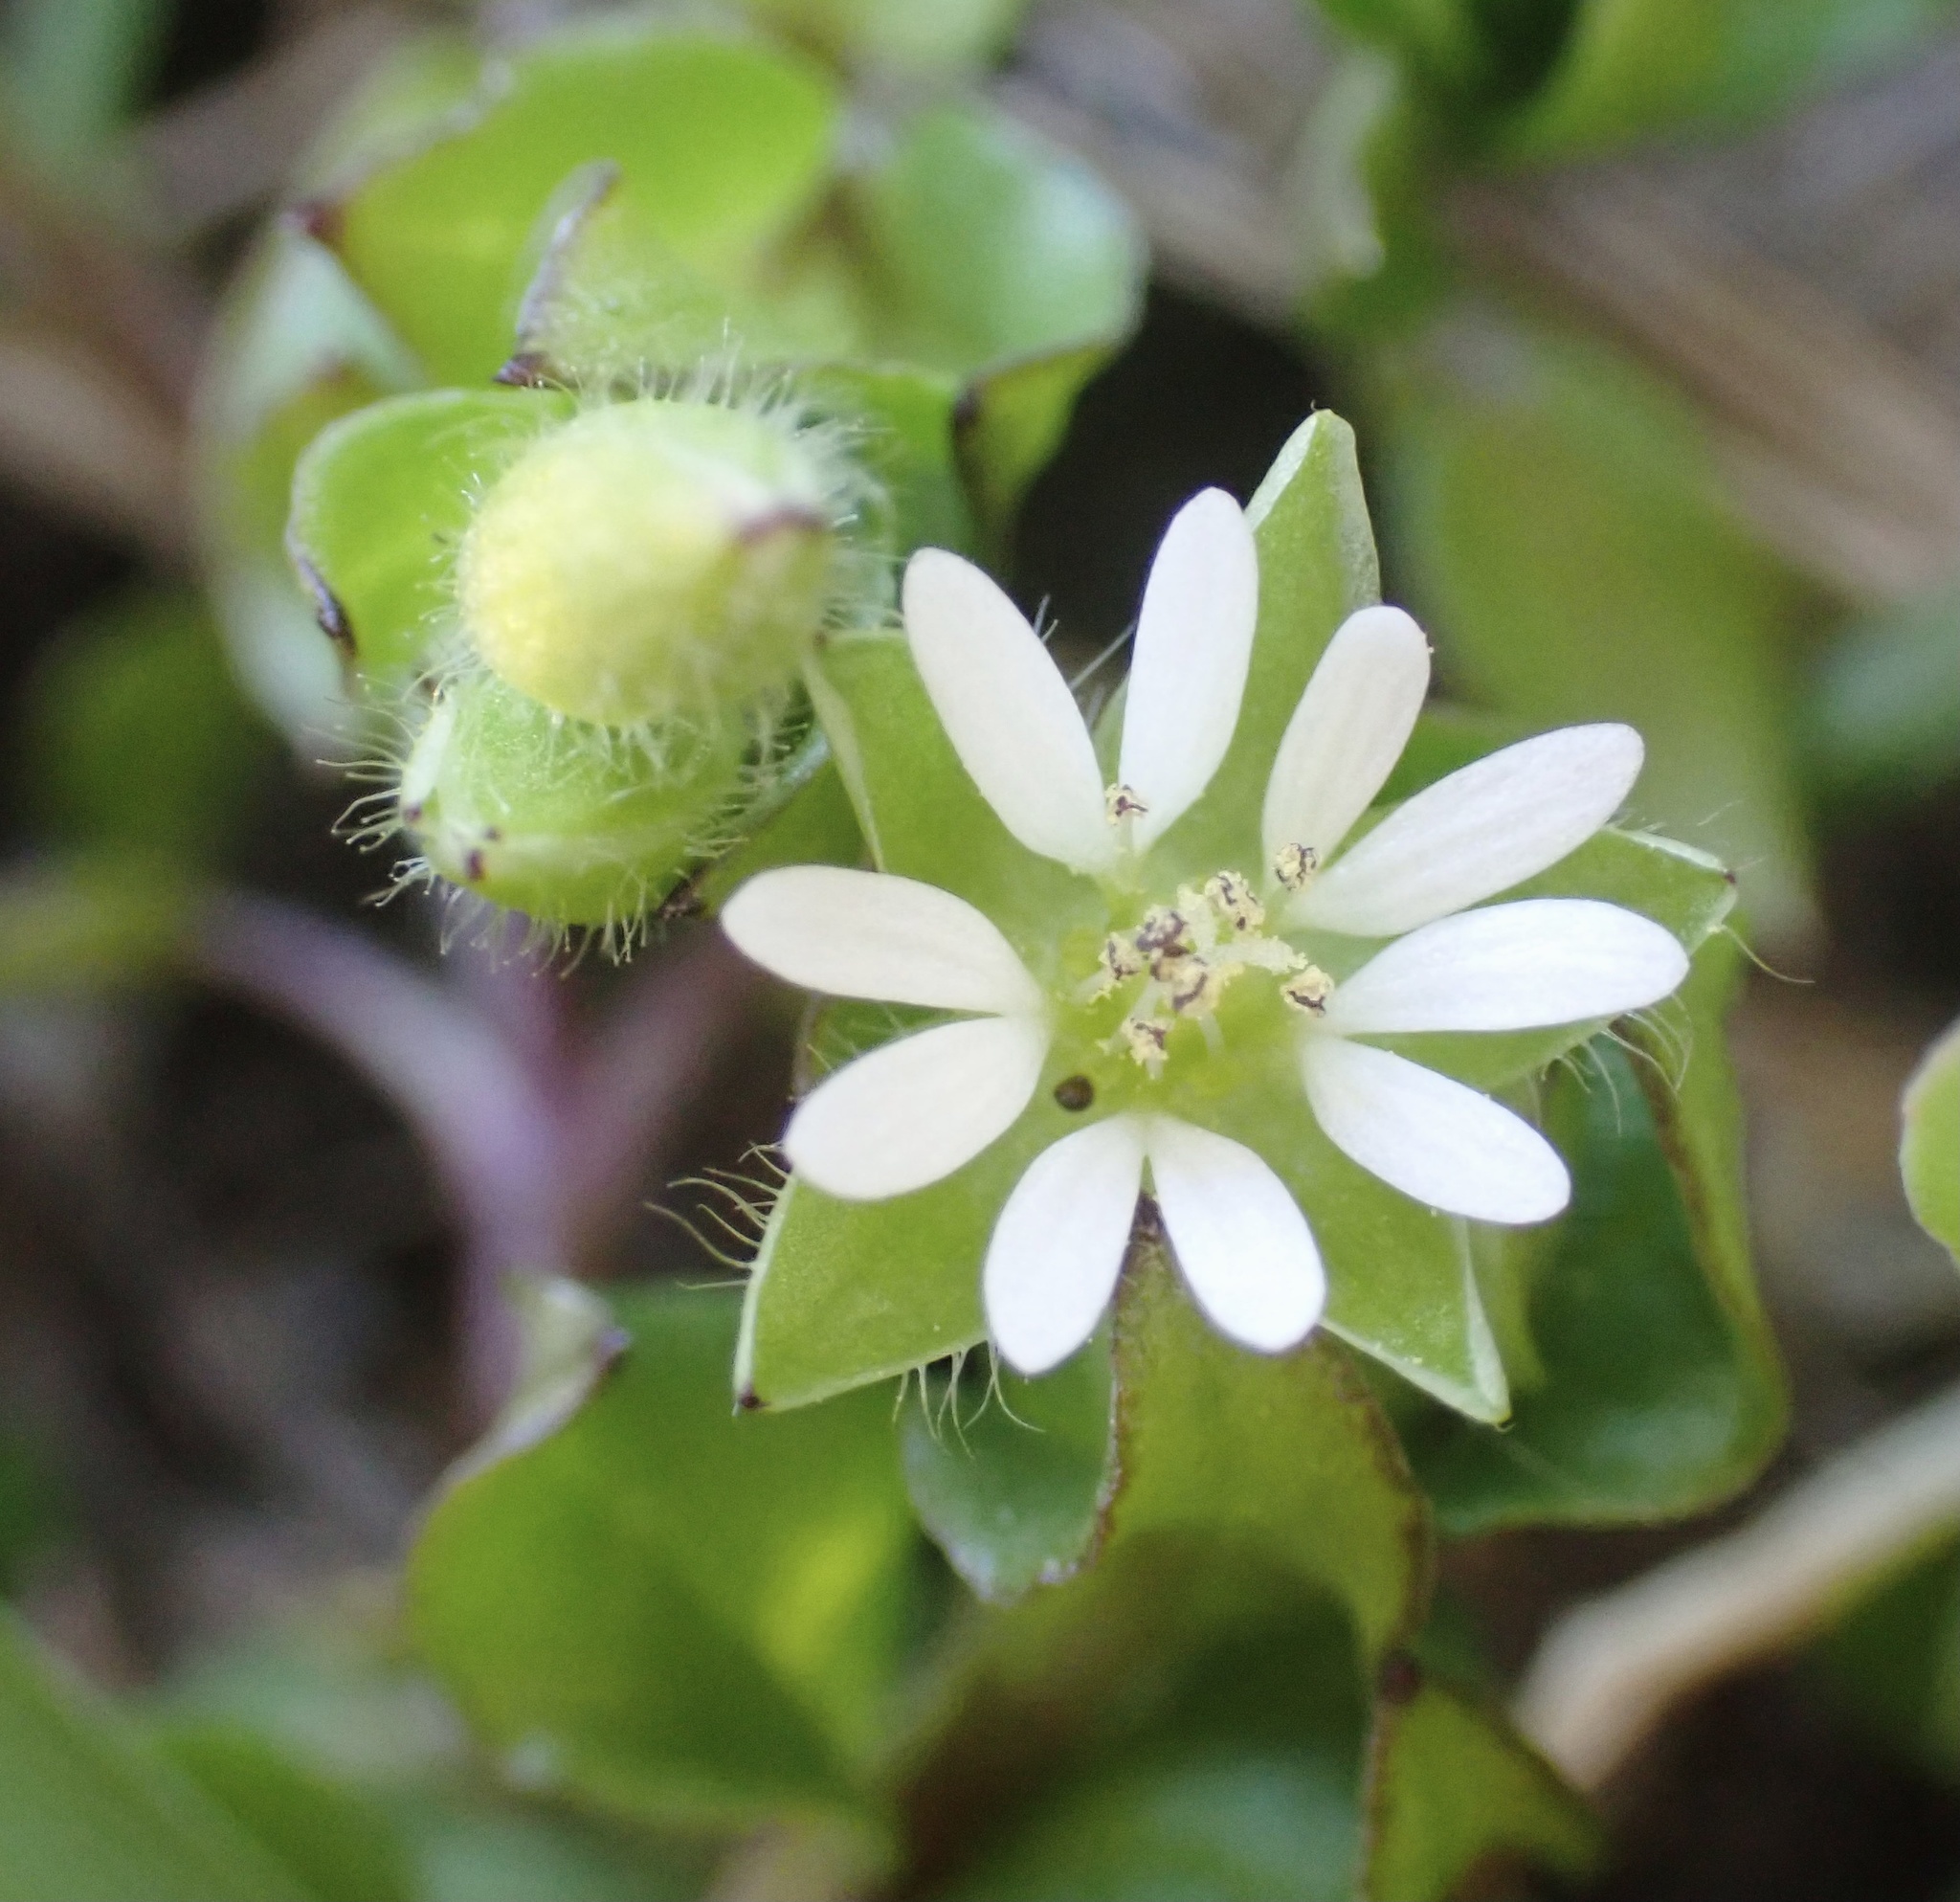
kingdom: Plantae
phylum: Tracheophyta
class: Magnoliopsida
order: Caryophyllales
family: Caryophyllaceae
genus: Stellaria
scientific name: Stellaria media
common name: Common chickweed
